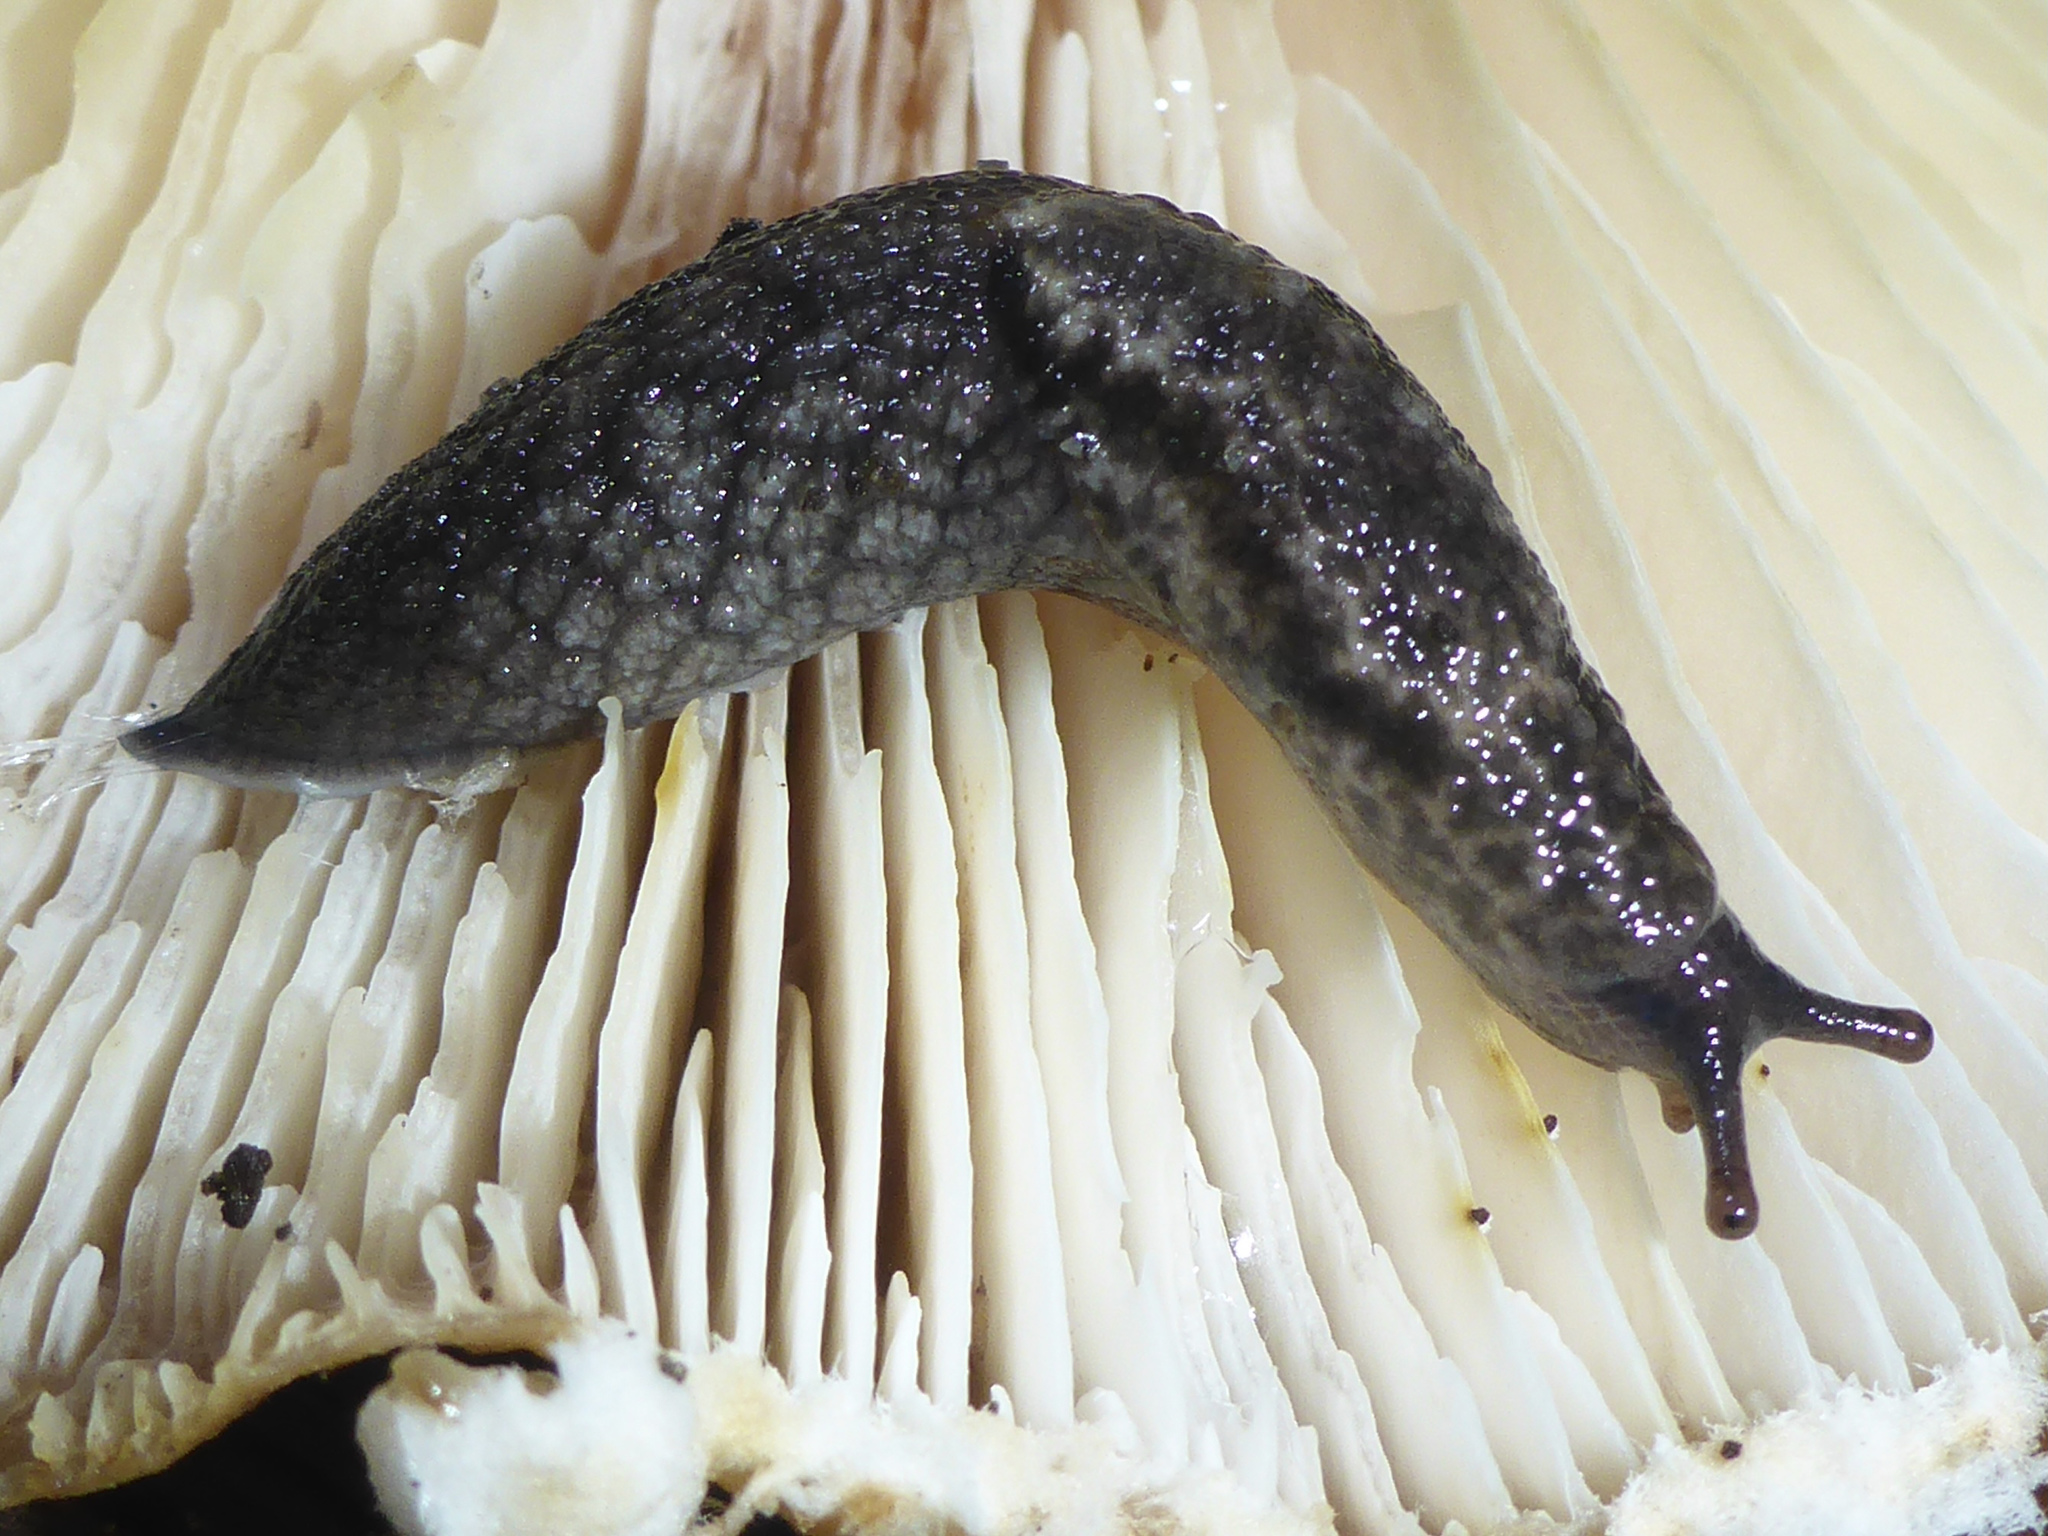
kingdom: Animalia
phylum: Mollusca
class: Gastropoda
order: Stylommatophora
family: Ariolimacidae
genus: Prophysaon
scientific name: Prophysaon andersonii
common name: Reticulate taildropper
